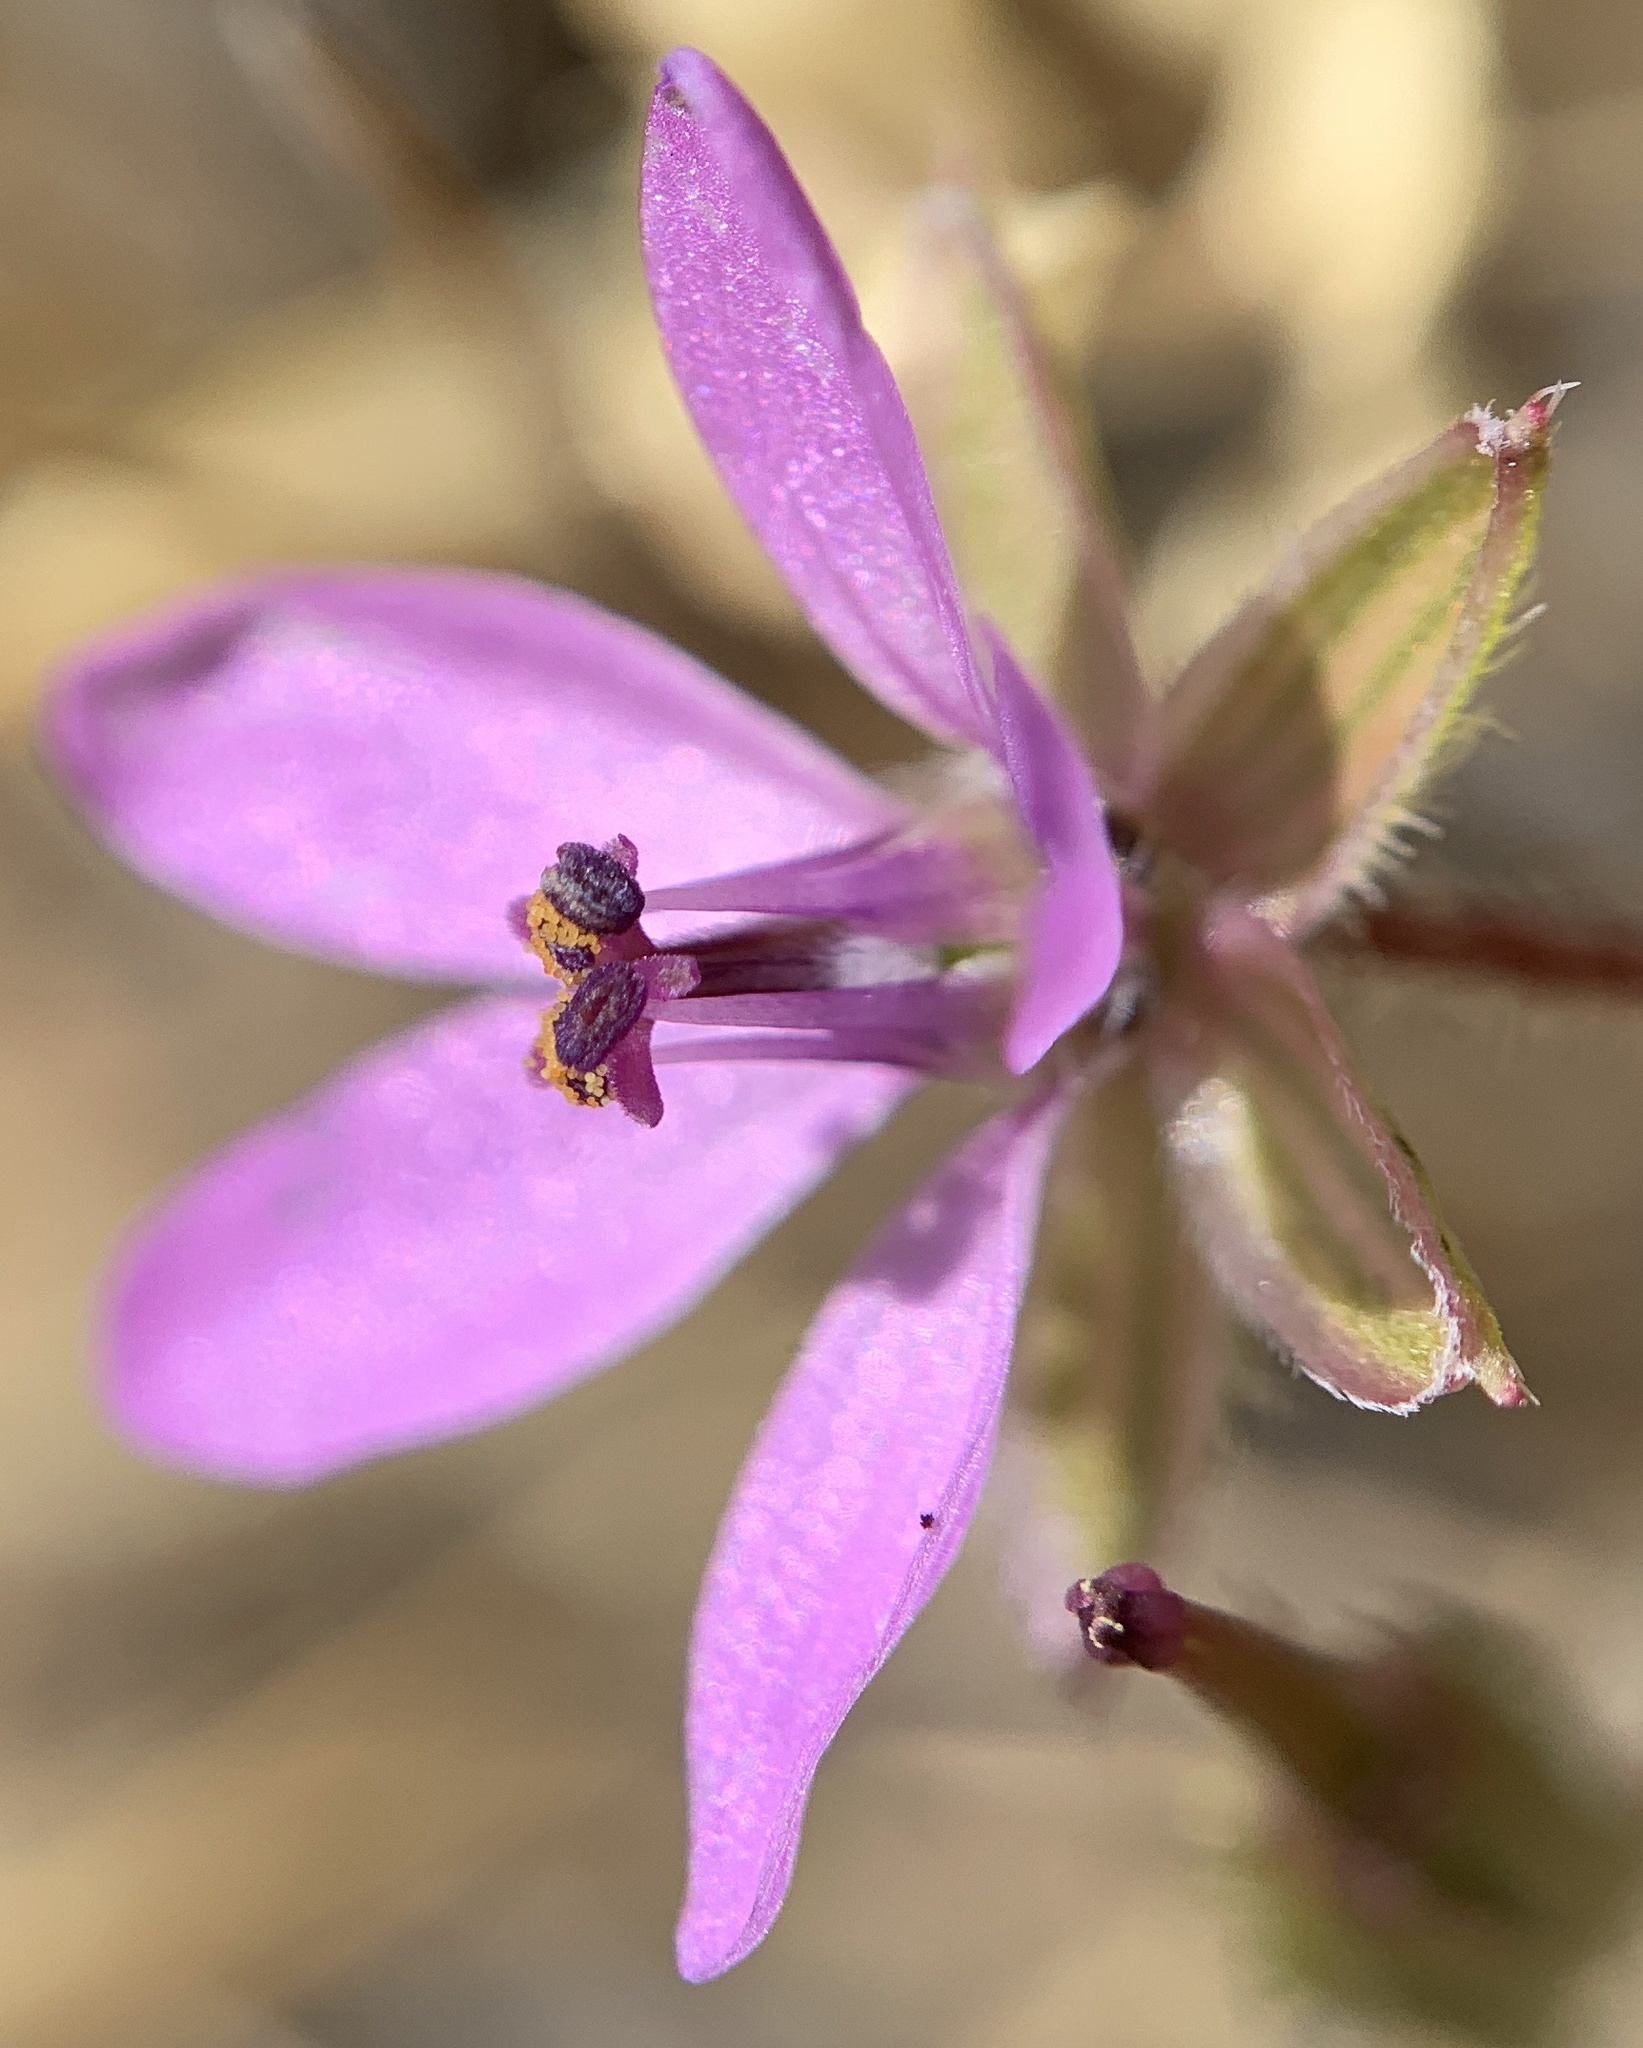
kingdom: Plantae
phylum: Tracheophyta
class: Magnoliopsida
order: Geraniales
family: Geraniaceae
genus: Erodium
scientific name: Erodium cicutarium
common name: Common stork's-bill
